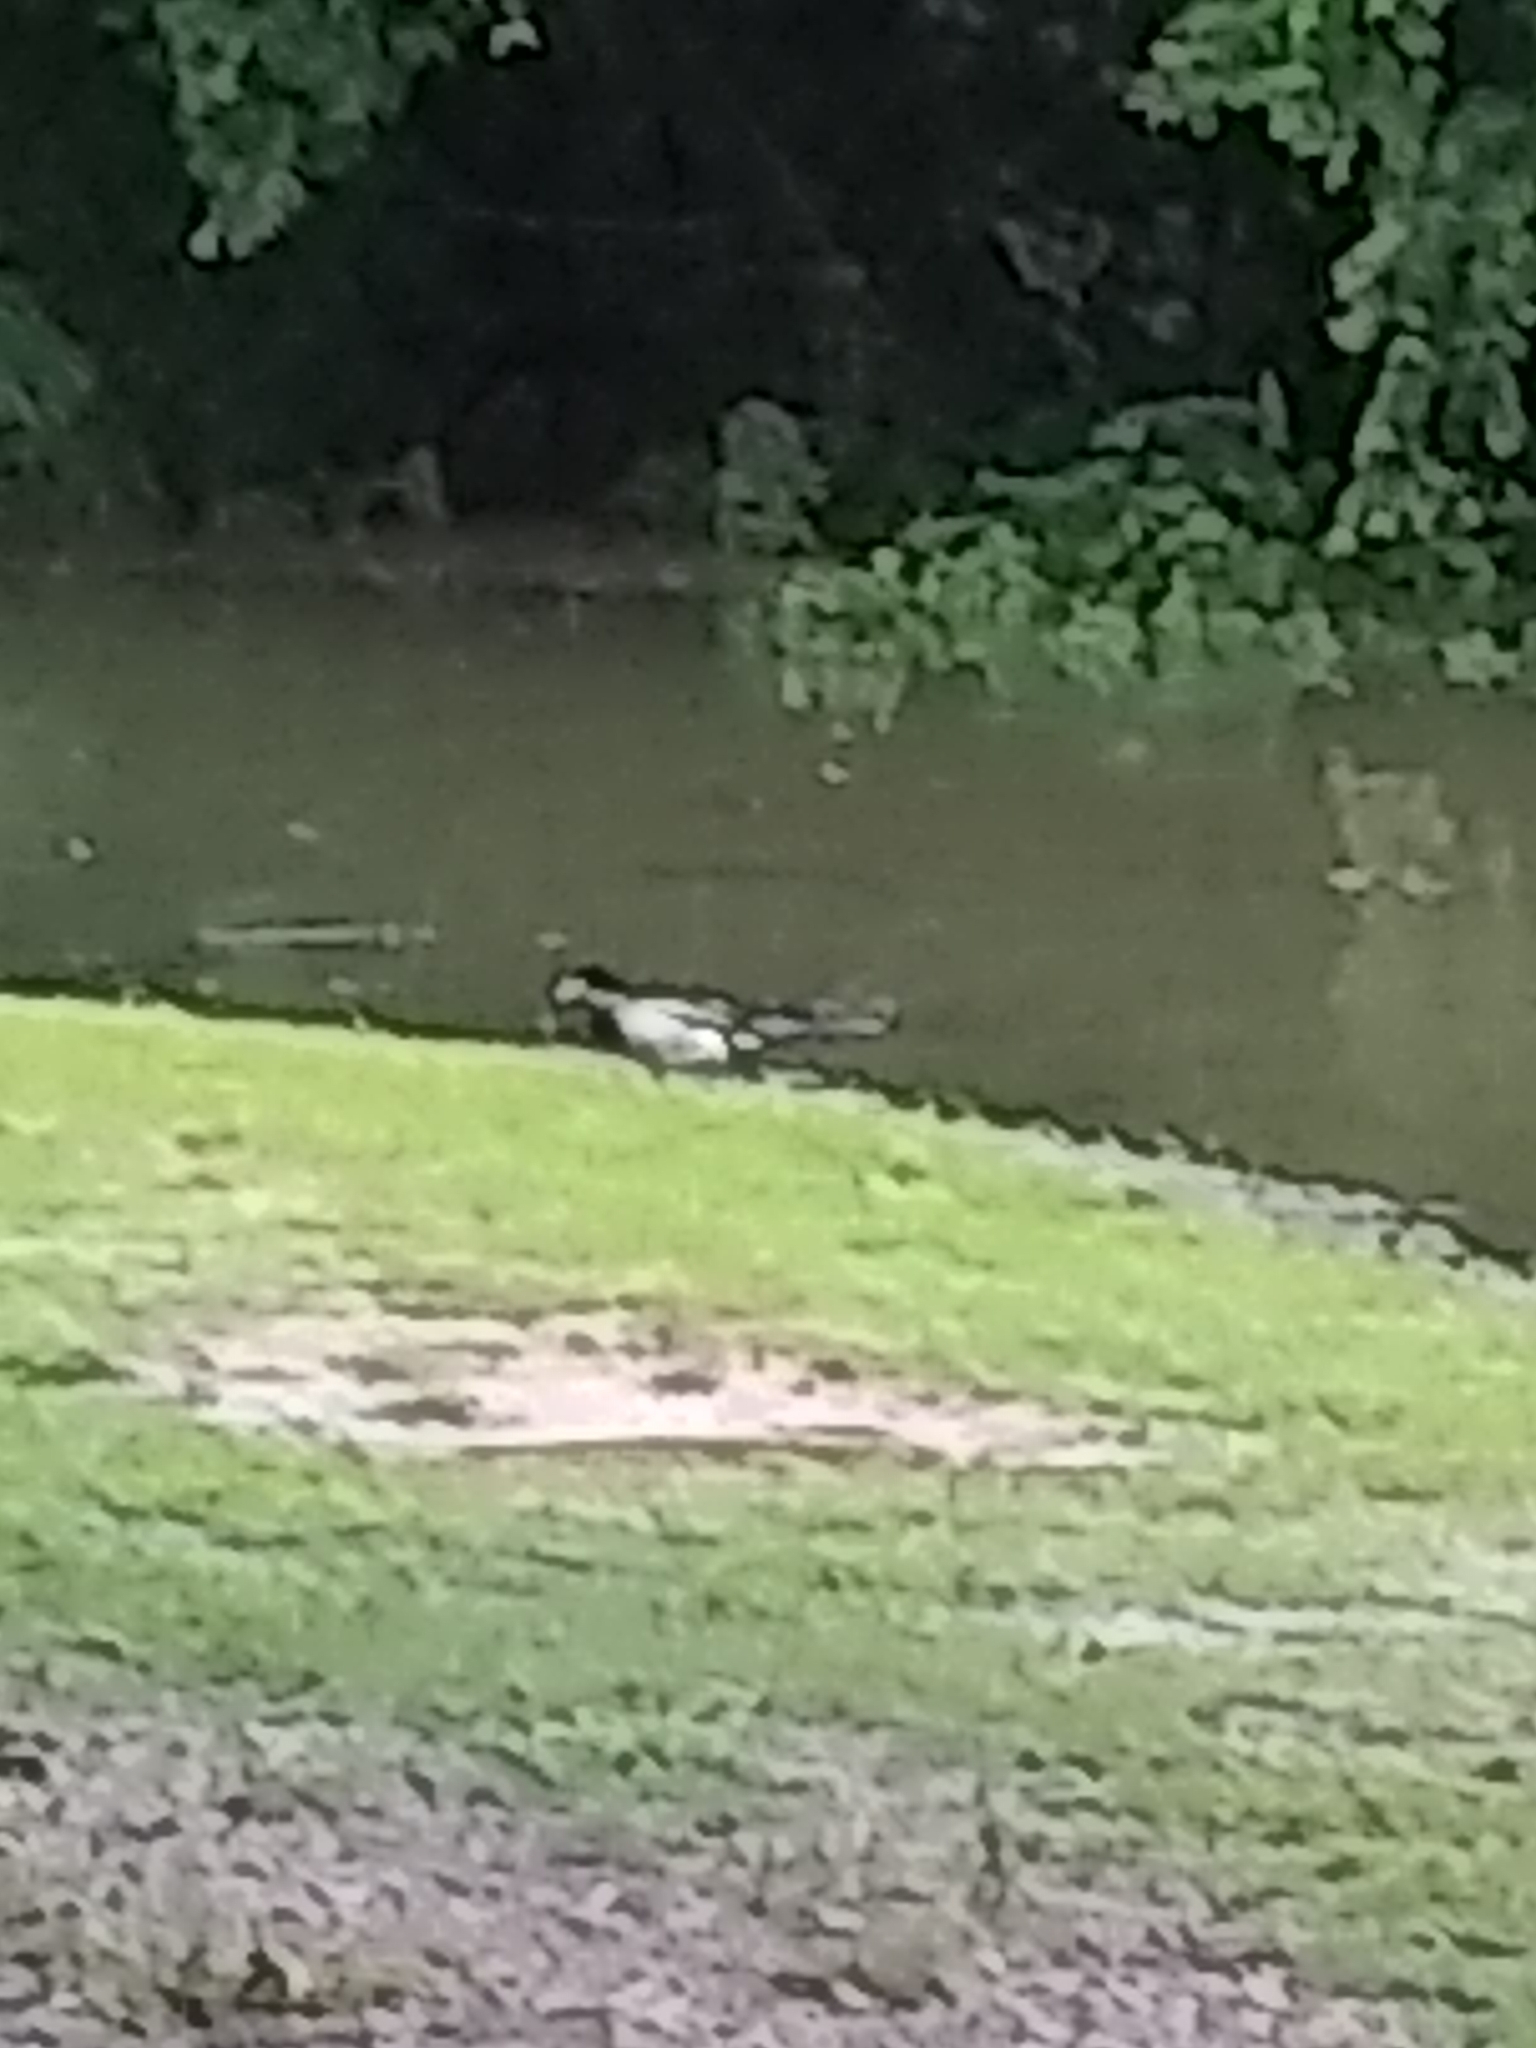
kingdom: Animalia
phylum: Chordata
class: Aves
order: Anseriformes
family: Anatidae
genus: Anas
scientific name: Anas platyrhynchos
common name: Mallard
